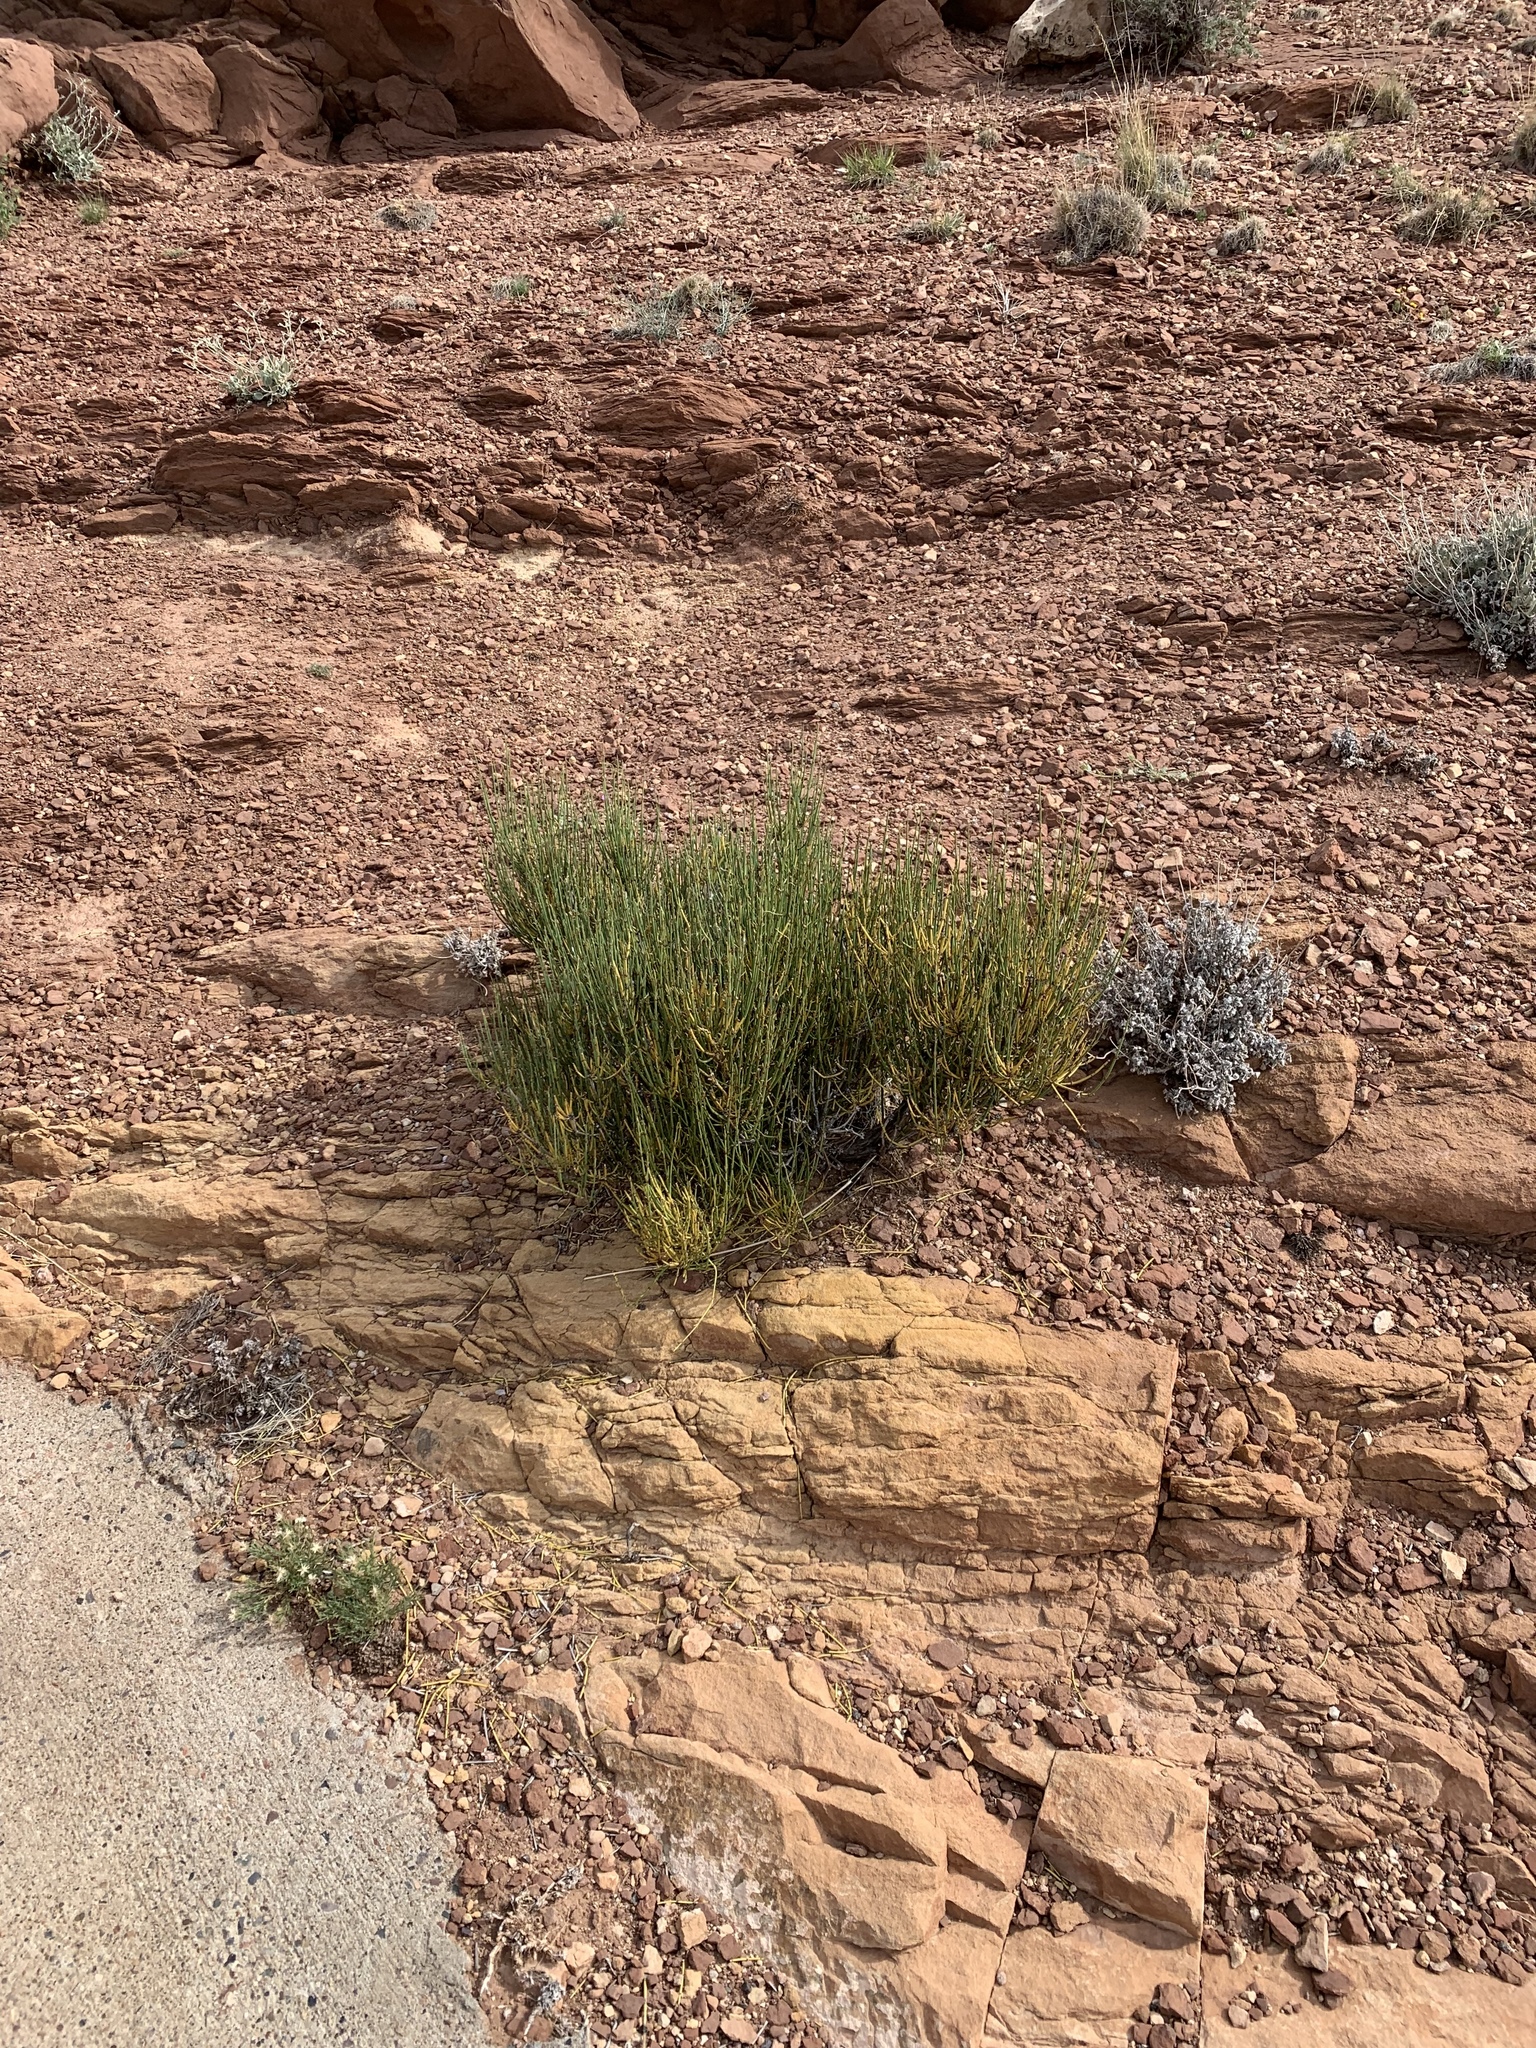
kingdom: Plantae
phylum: Tracheophyta
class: Gnetopsida
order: Ephedrales
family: Ephedraceae
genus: Ephedra
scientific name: Ephedra viridis
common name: Green ephedra
